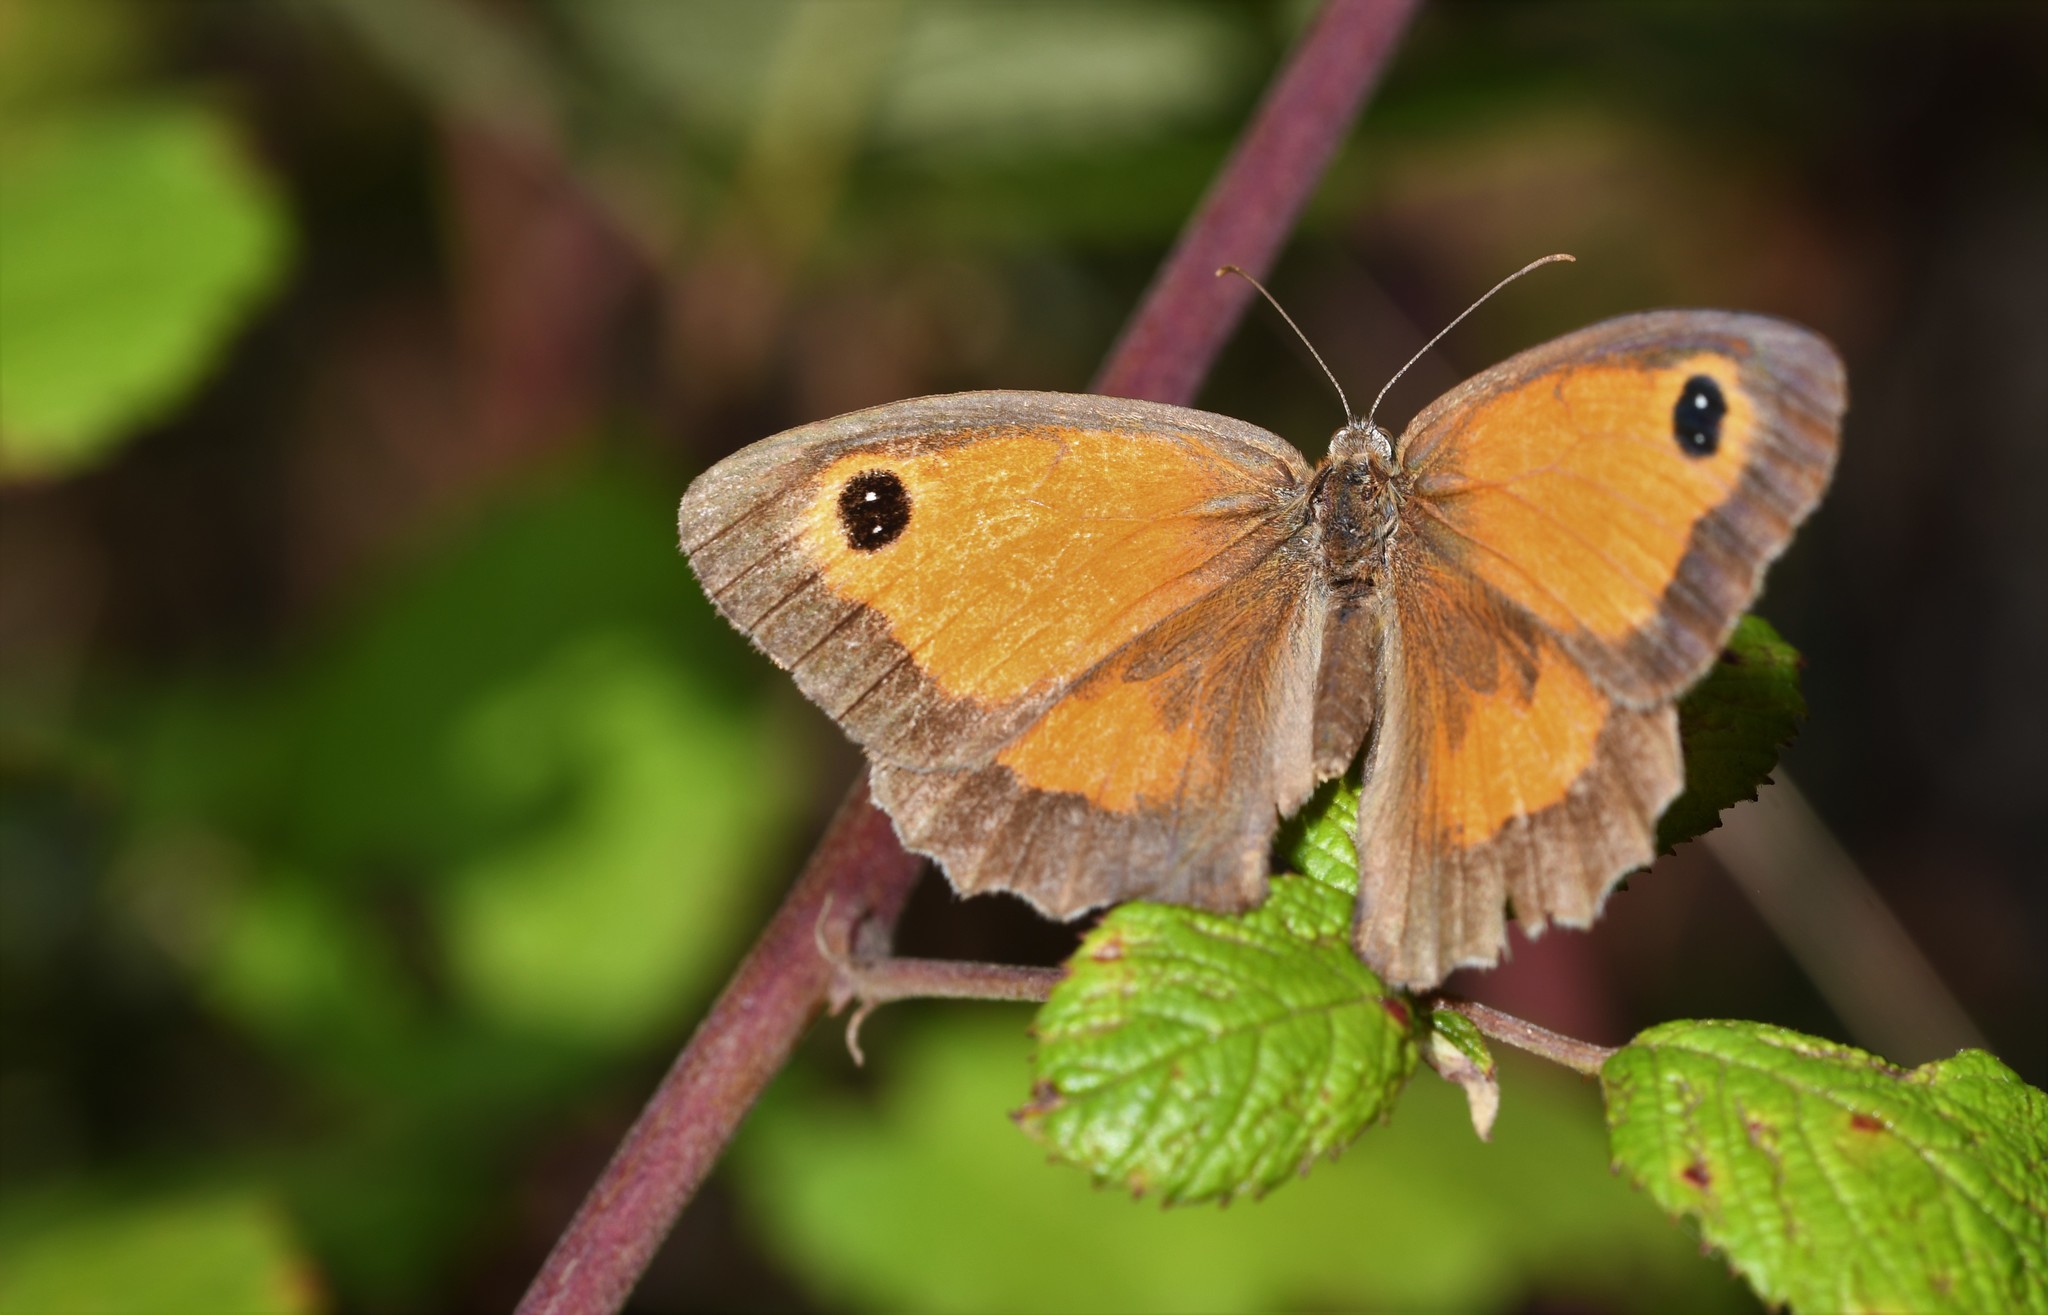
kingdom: Animalia
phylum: Arthropoda
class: Insecta
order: Lepidoptera
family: Nymphalidae
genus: Pyronia
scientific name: Pyronia tithonus
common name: Gatekeeper
